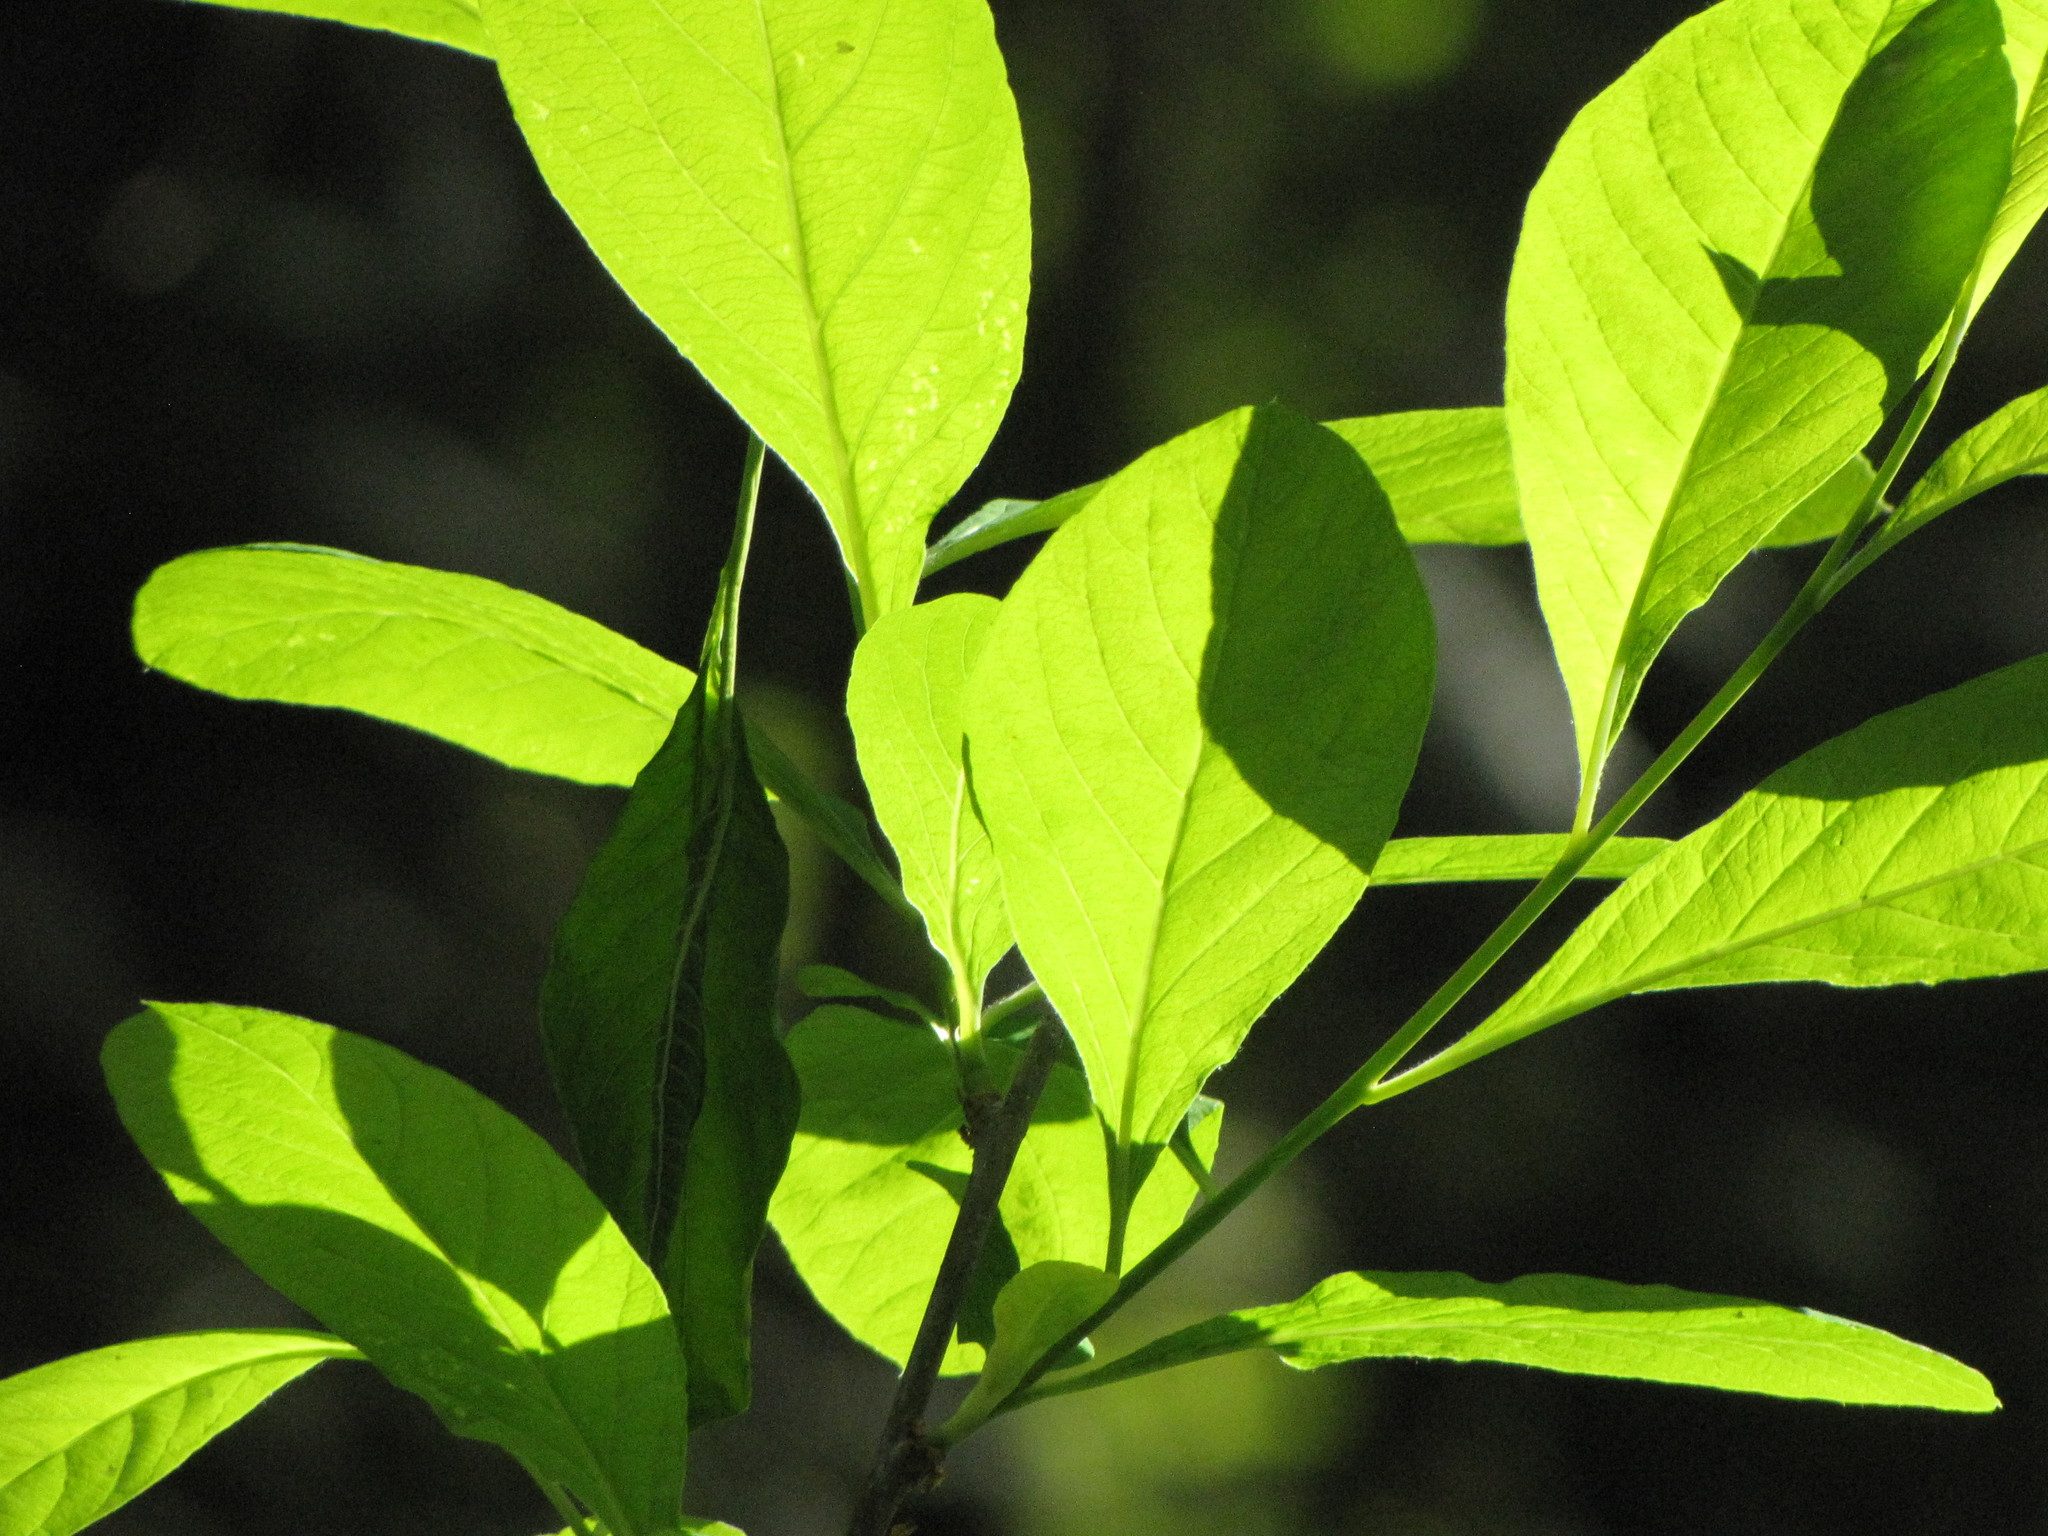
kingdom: Plantae
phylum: Tracheophyta
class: Magnoliopsida
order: Rosales
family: Rosaceae
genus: Oemleria
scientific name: Oemleria cerasiformis
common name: Osoberry
